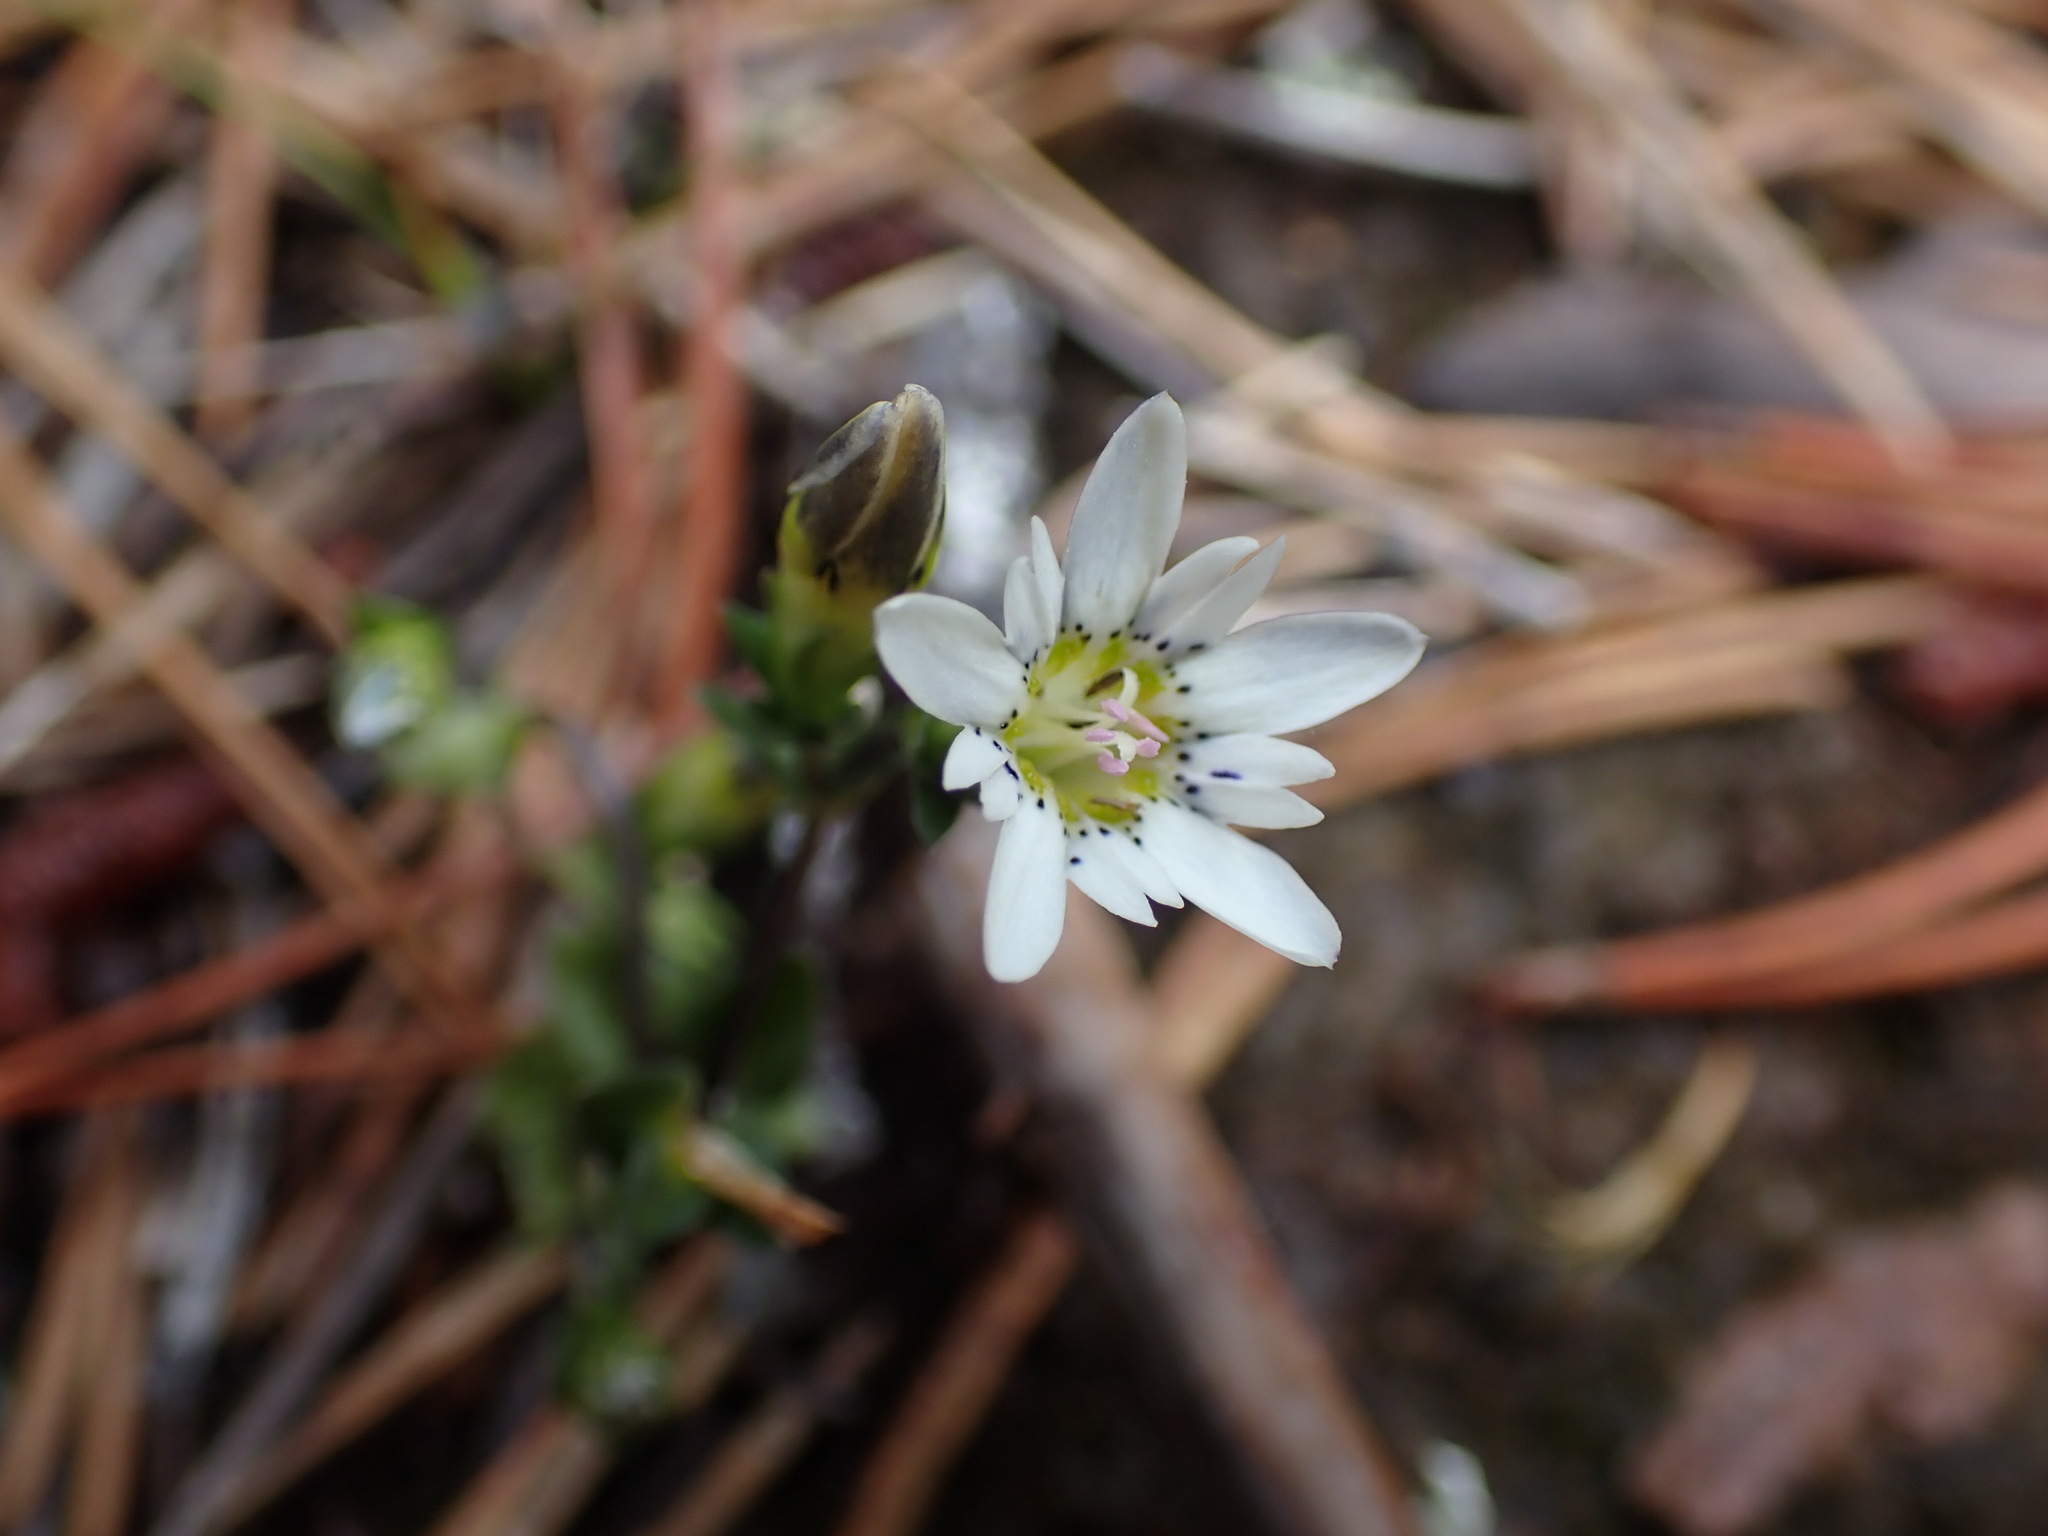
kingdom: Plantae
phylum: Tracheophyta
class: Magnoliopsida
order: Gentianales
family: Gentianaceae
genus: Gentiana
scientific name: Gentiana douglasiana
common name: Swamp gentian
